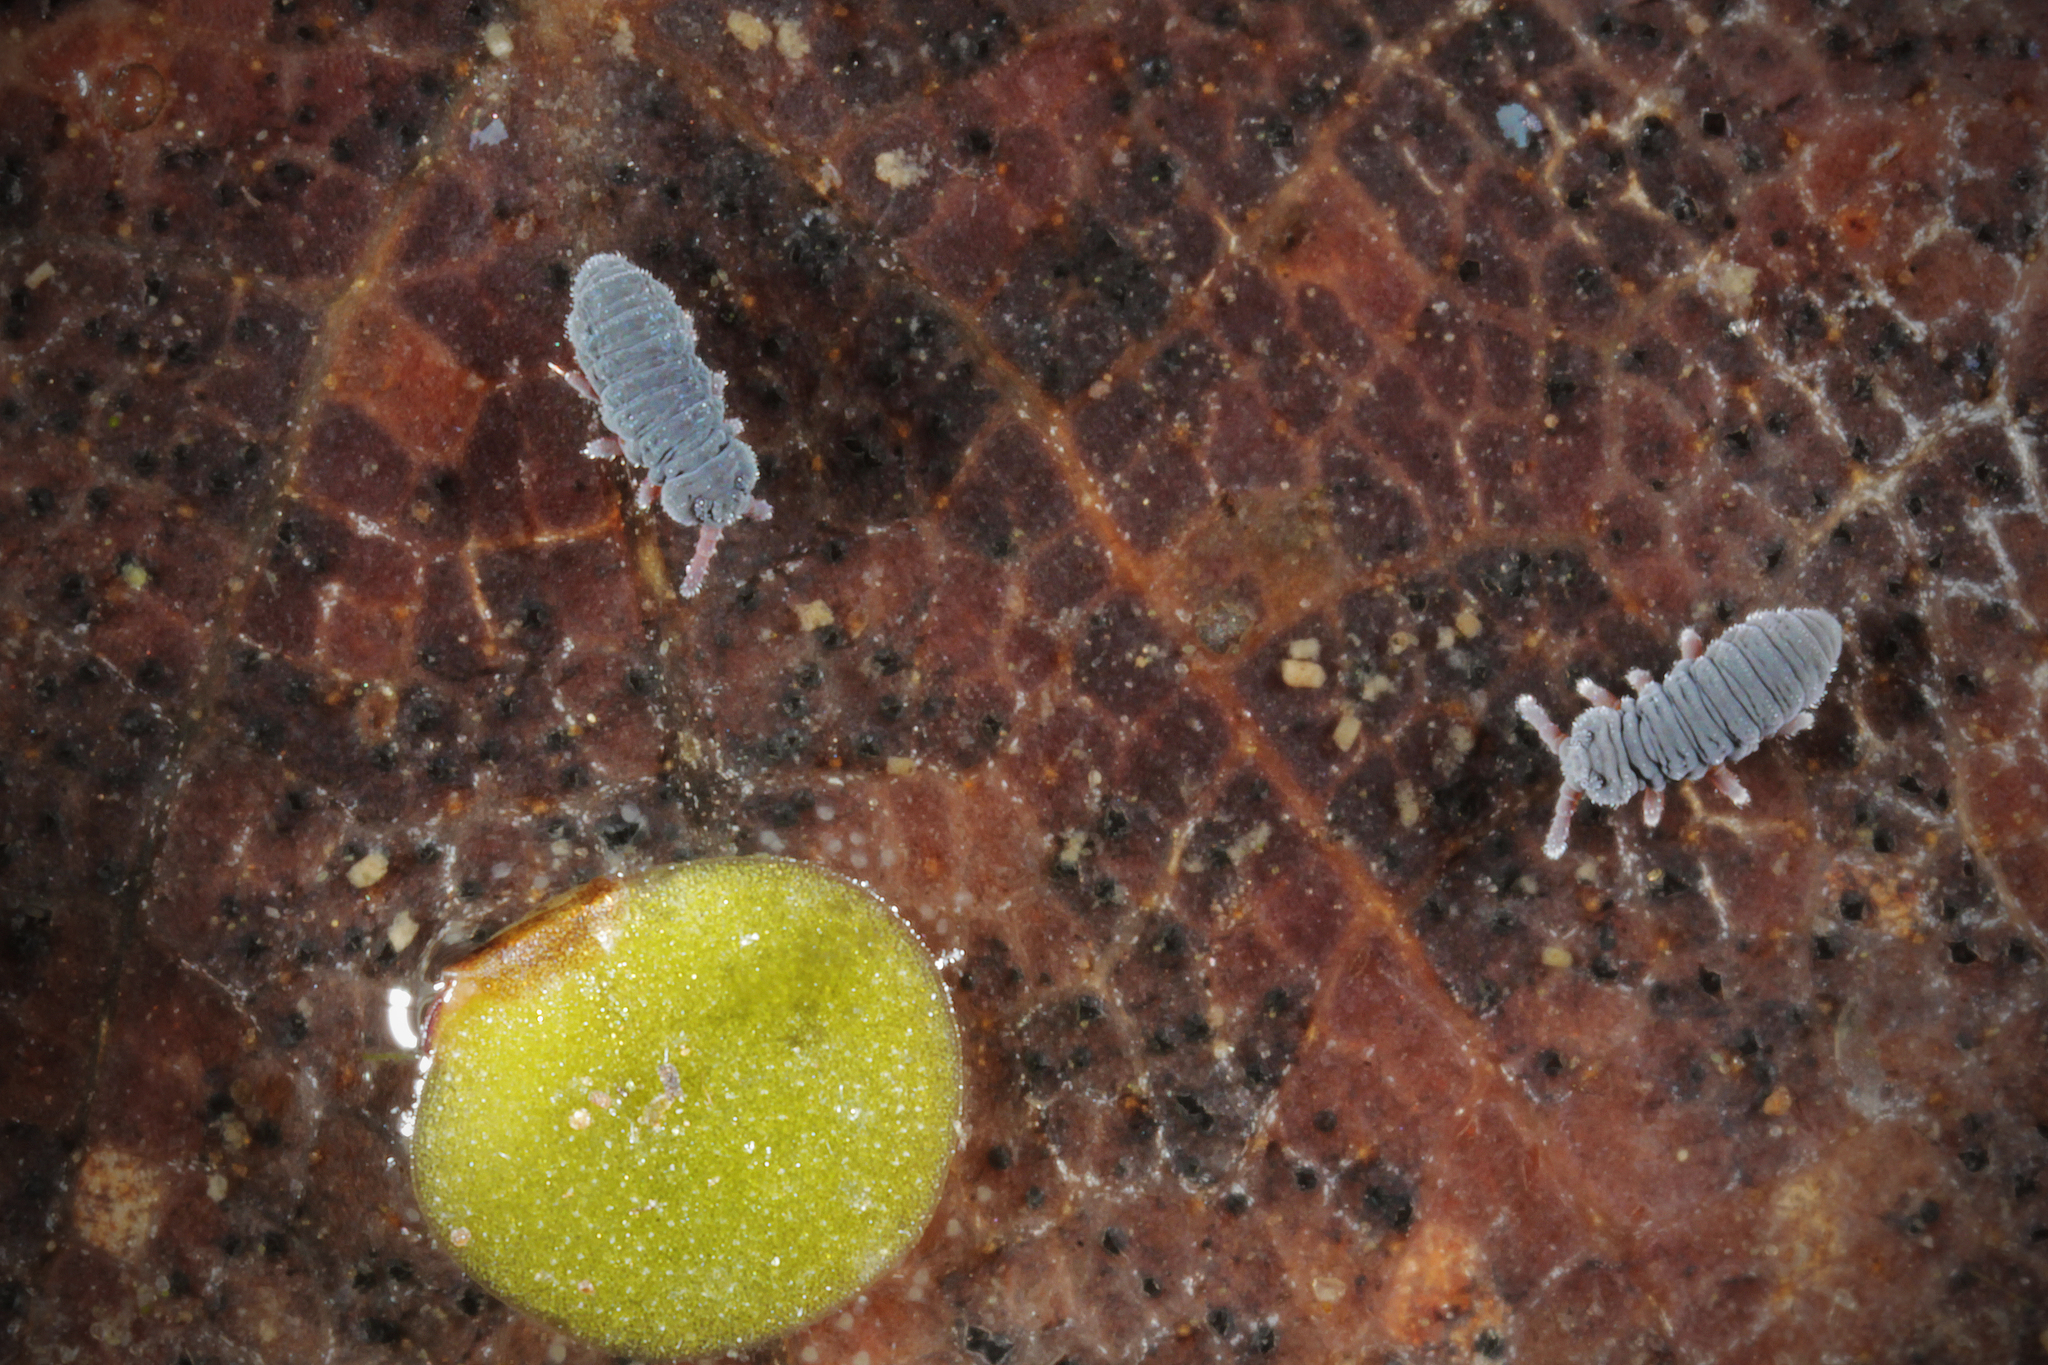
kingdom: Animalia
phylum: Arthropoda
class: Collembola
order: Poduromorpha
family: Poduridae
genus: Podura
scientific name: Podura aquatica
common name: Water springtail
